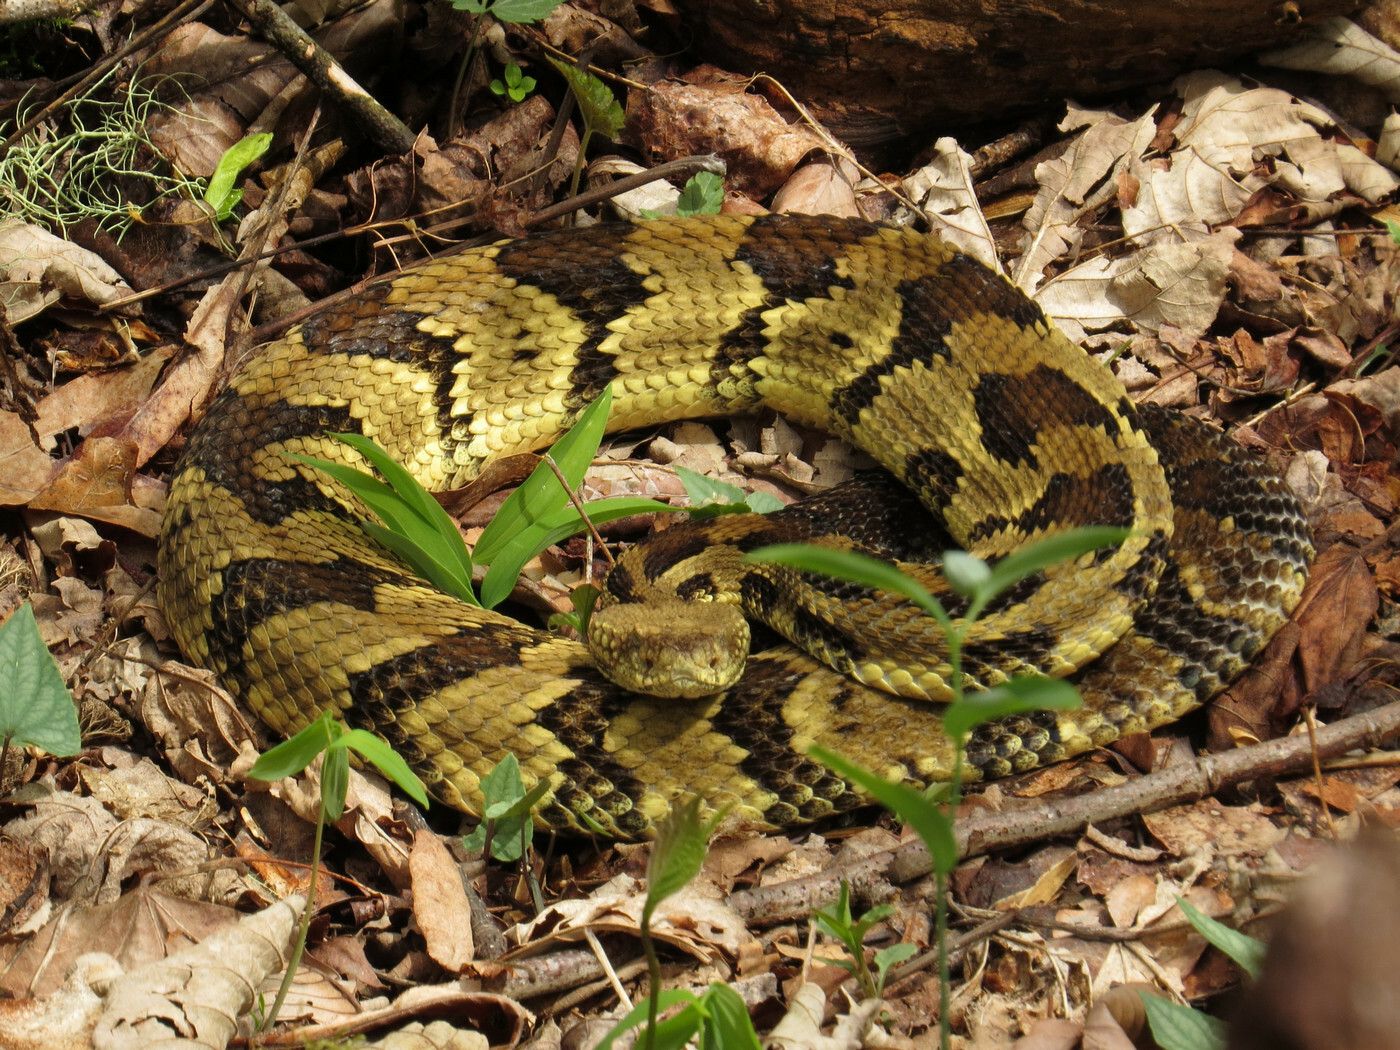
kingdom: Animalia
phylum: Chordata
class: Squamata
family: Viperidae
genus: Crotalus
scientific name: Crotalus horridus
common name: Timber rattlesnake
